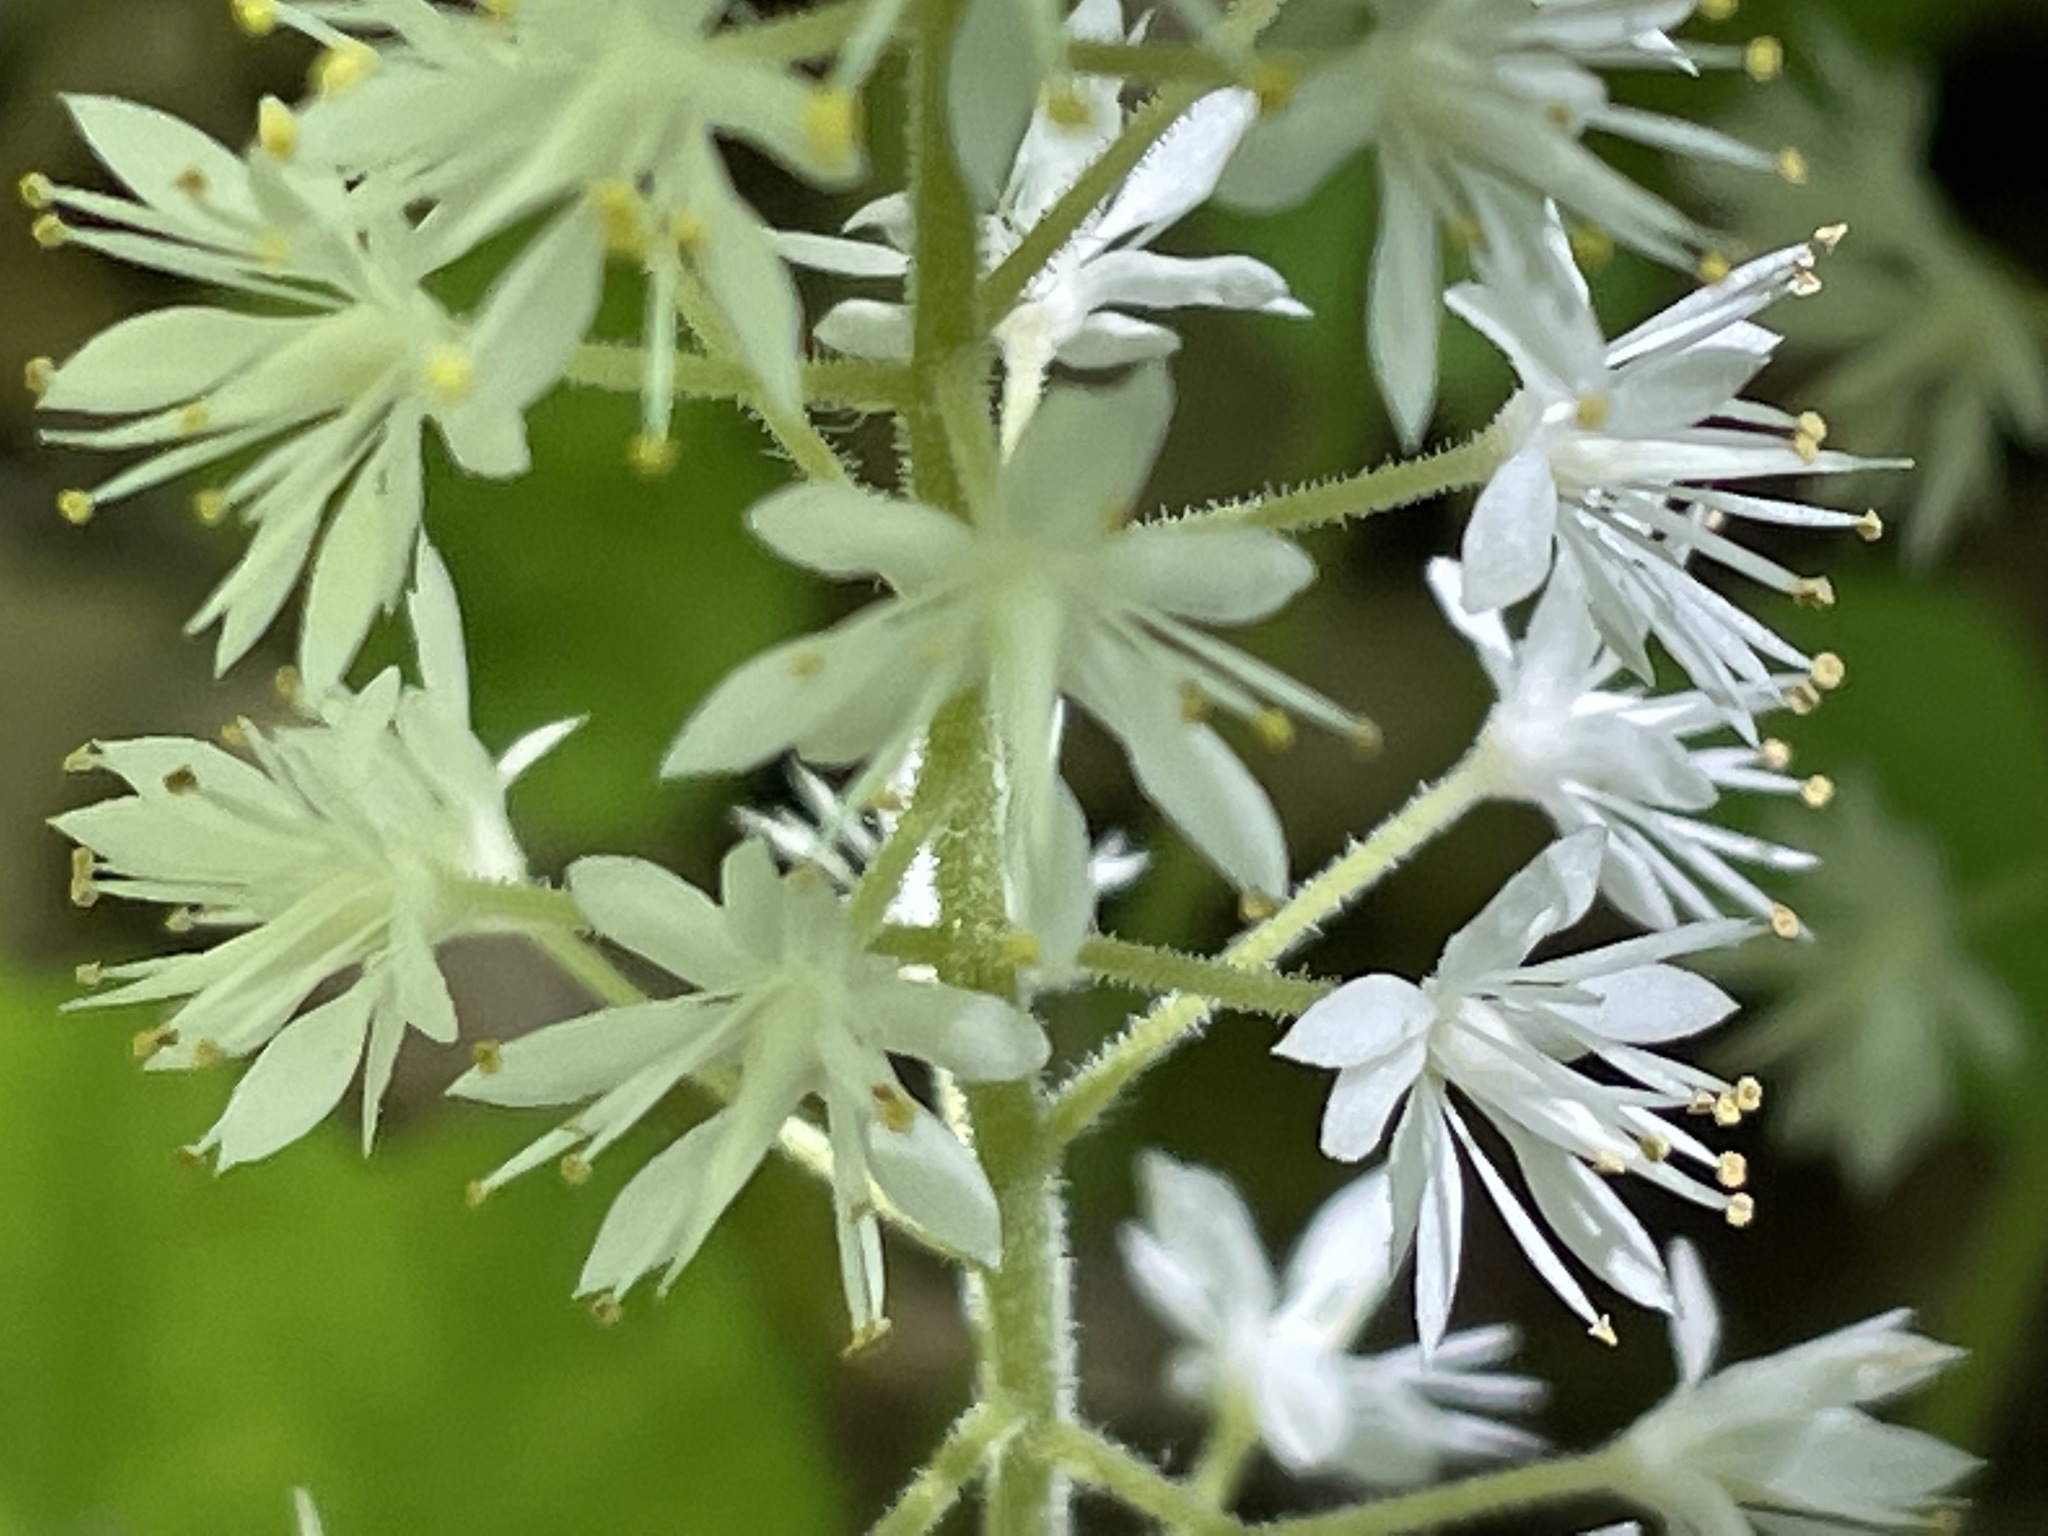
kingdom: Plantae
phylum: Tracheophyta
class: Magnoliopsida
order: Saxifragales
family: Saxifragaceae
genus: Tiarella
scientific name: Tiarella stolonifera
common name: Stoloniferous foamflower
